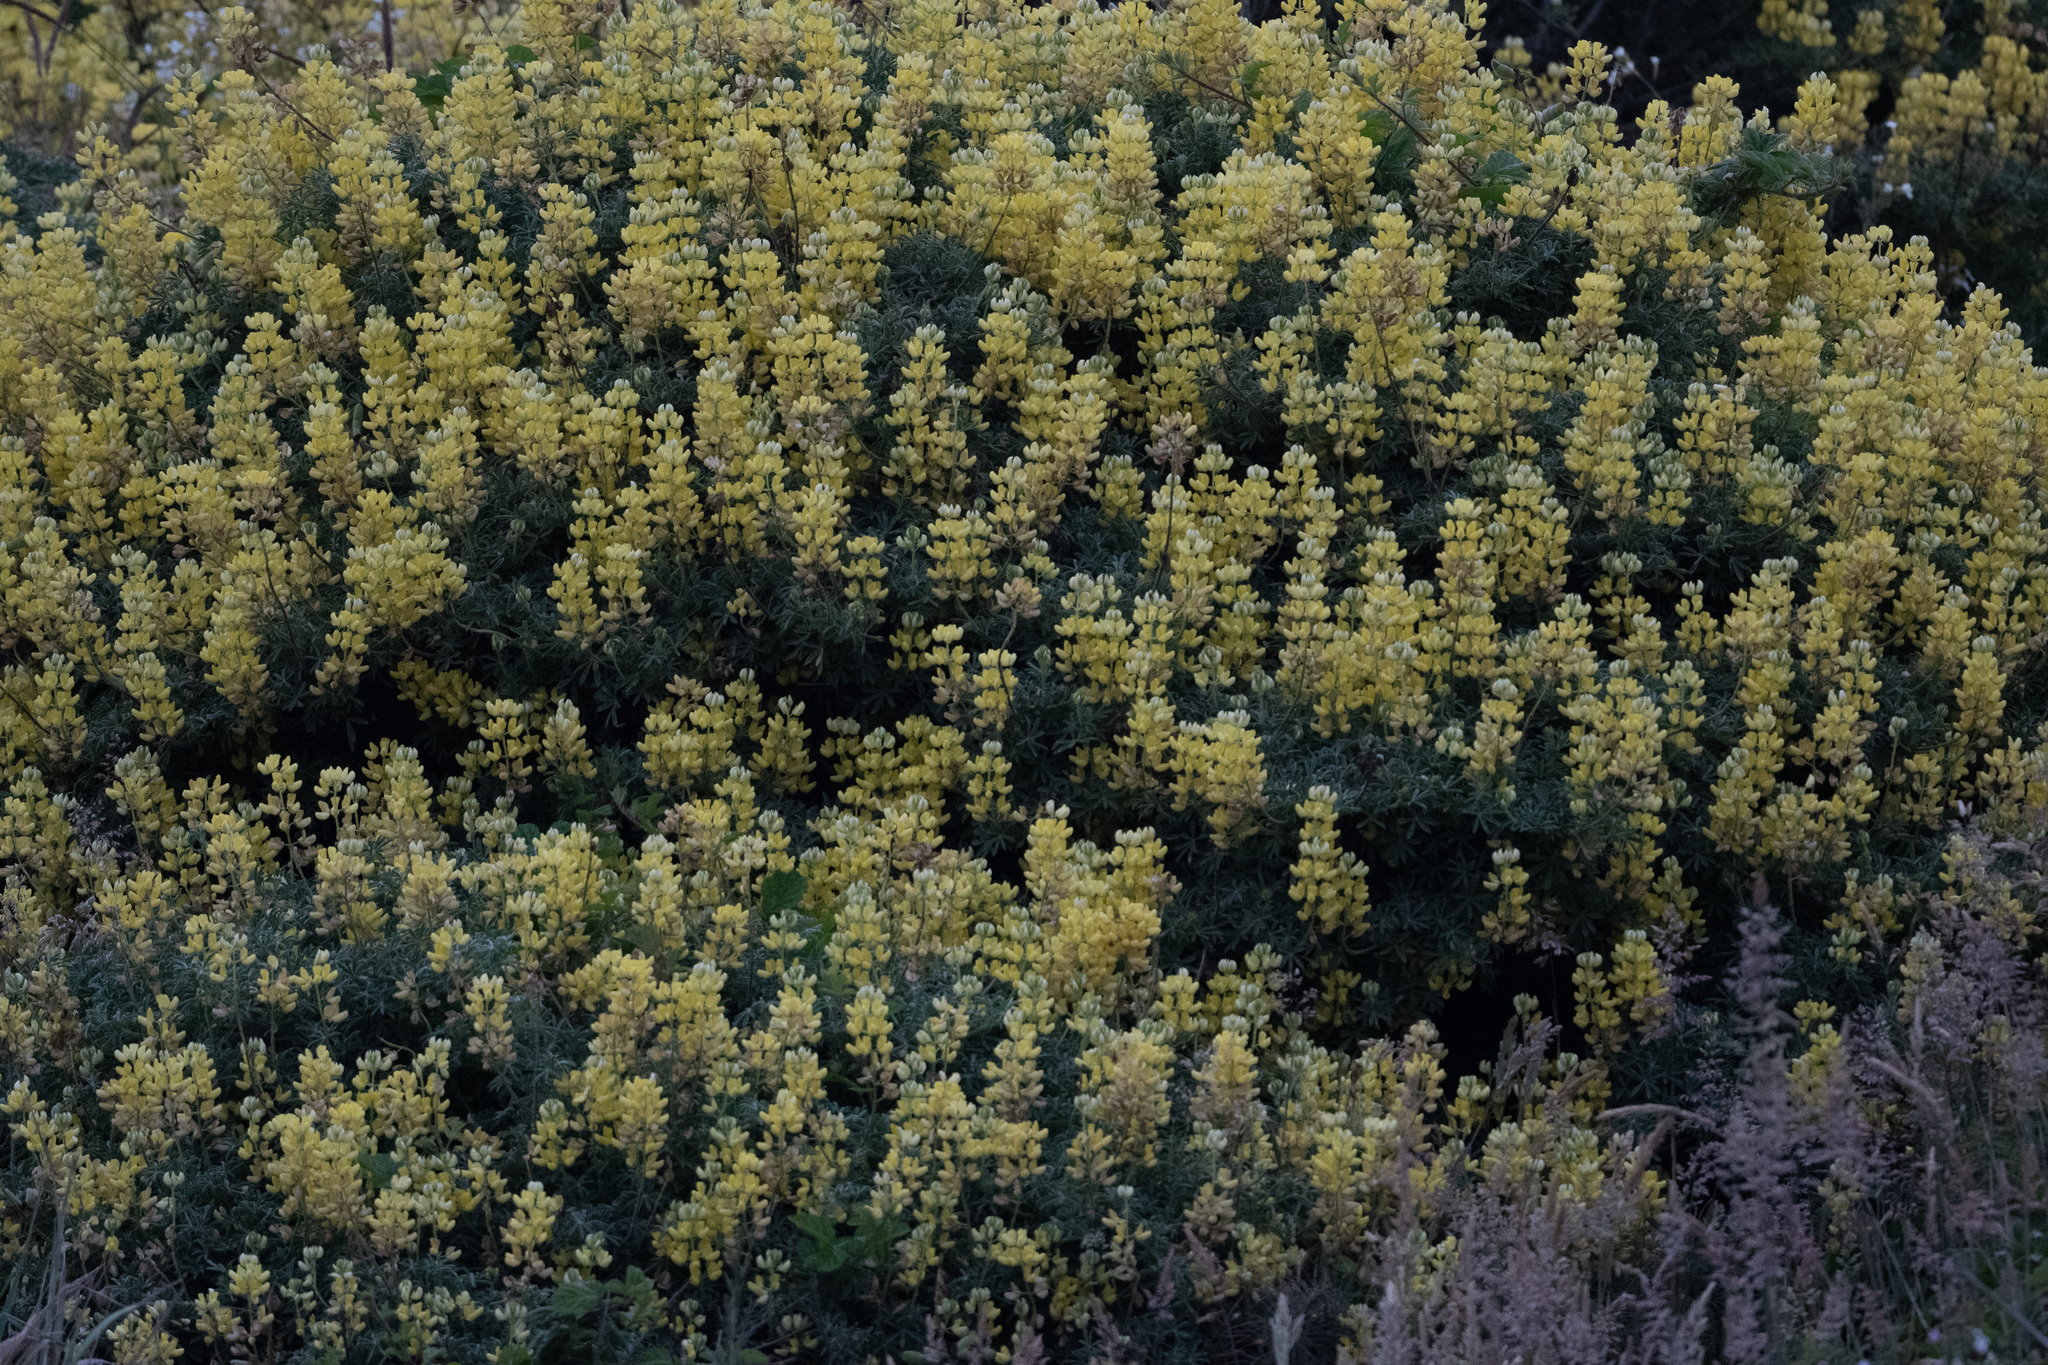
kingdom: Plantae
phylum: Tracheophyta
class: Magnoliopsida
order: Fabales
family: Fabaceae
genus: Lupinus
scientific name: Lupinus arboreus
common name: Yellow bush lupine
